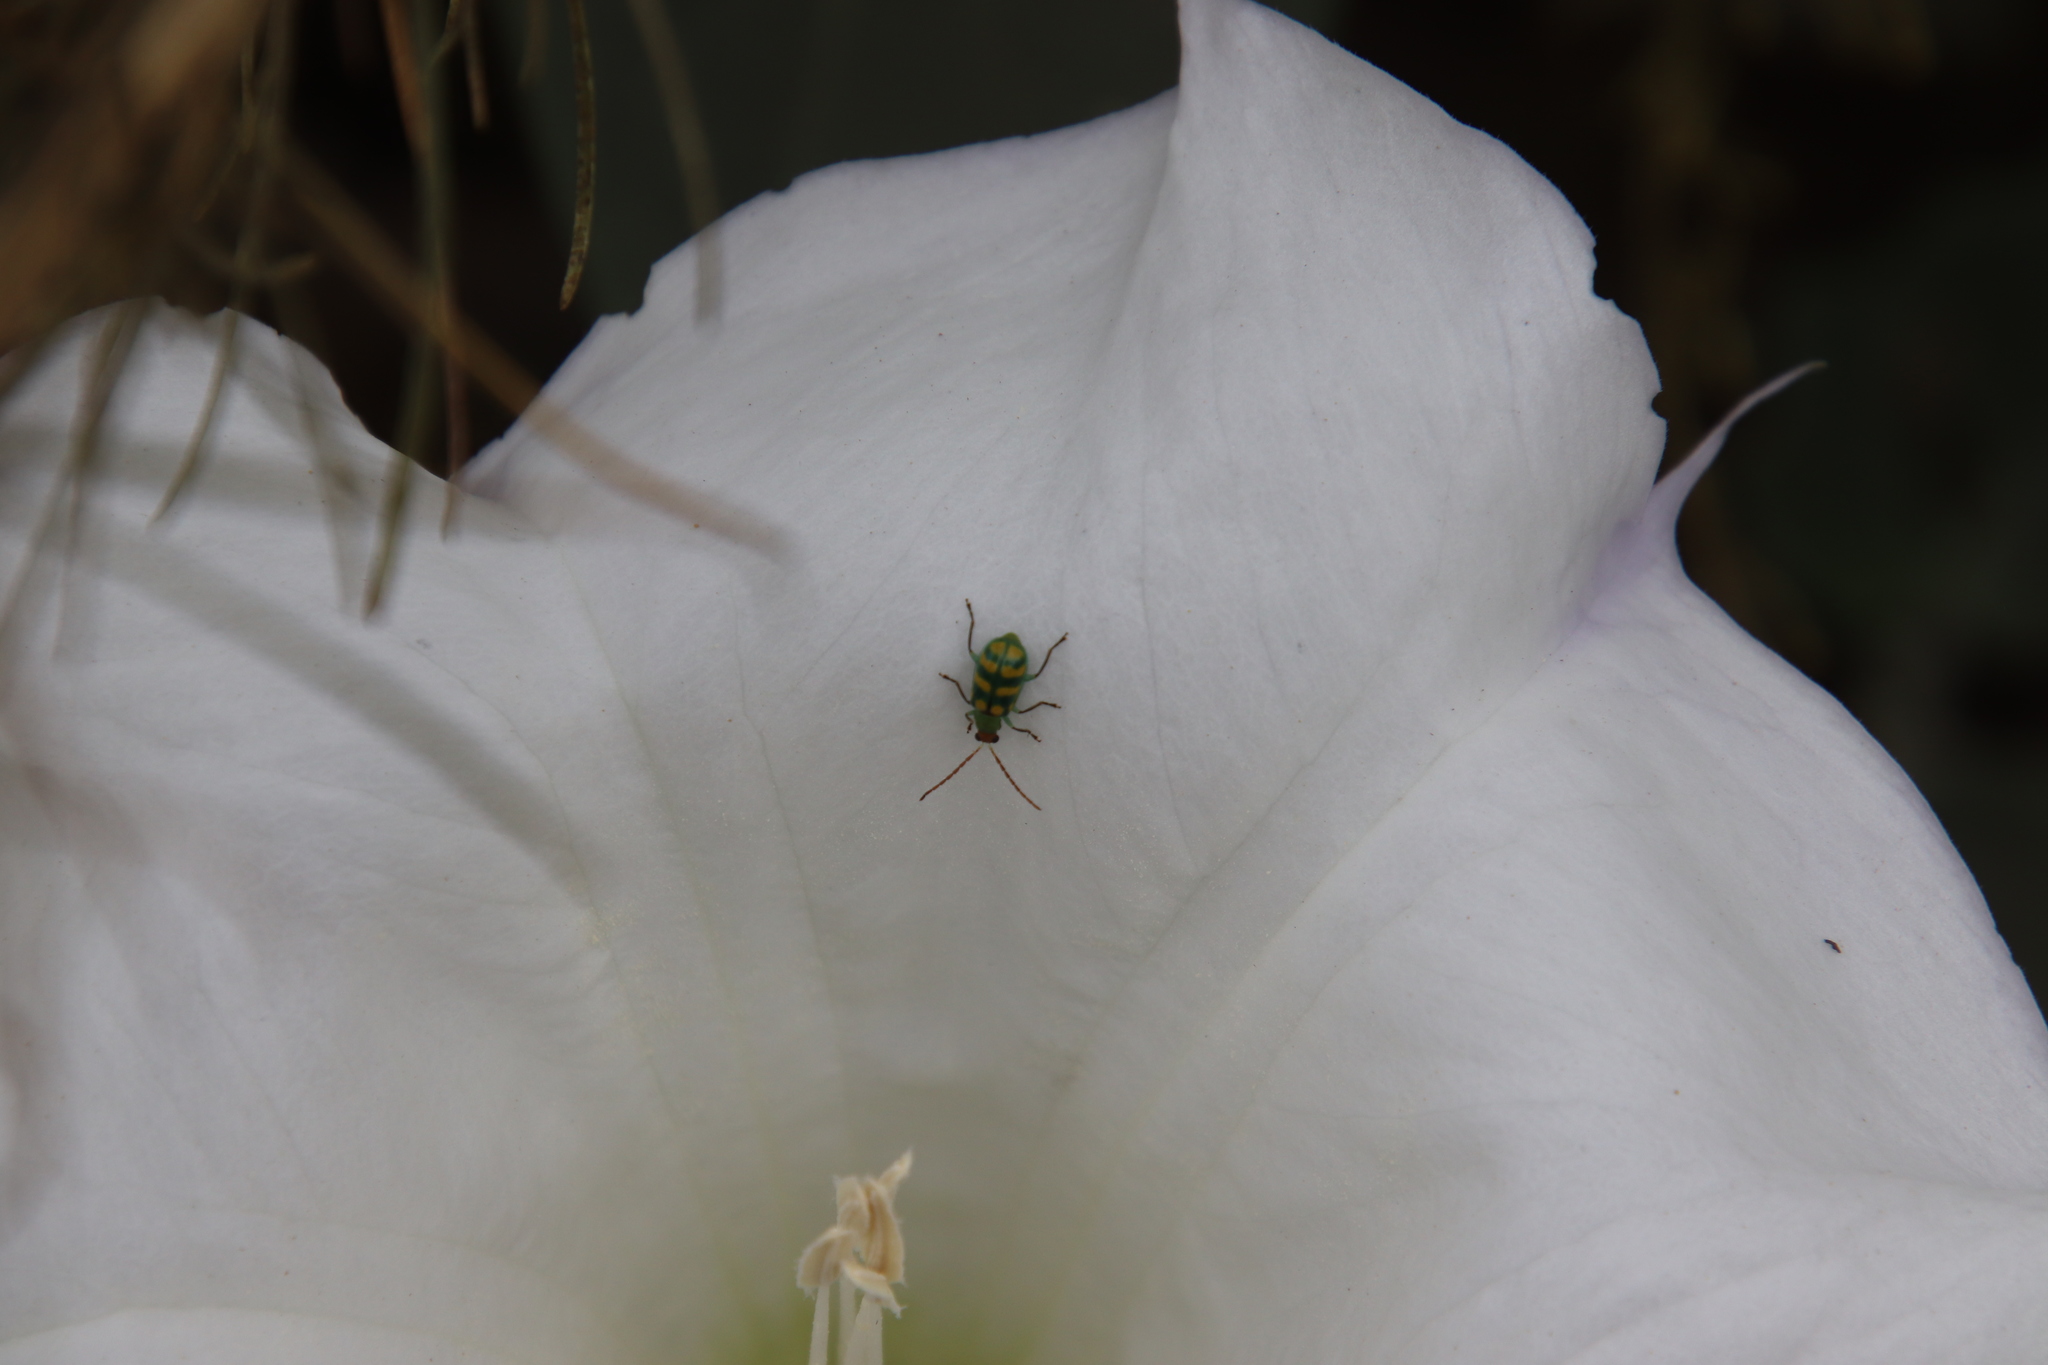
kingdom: Animalia
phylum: Arthropoda
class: Insecta
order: Coleoptera
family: Chrysomelidae
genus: Diabrotica
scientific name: Diabrotica balteata
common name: Leaf beetle
